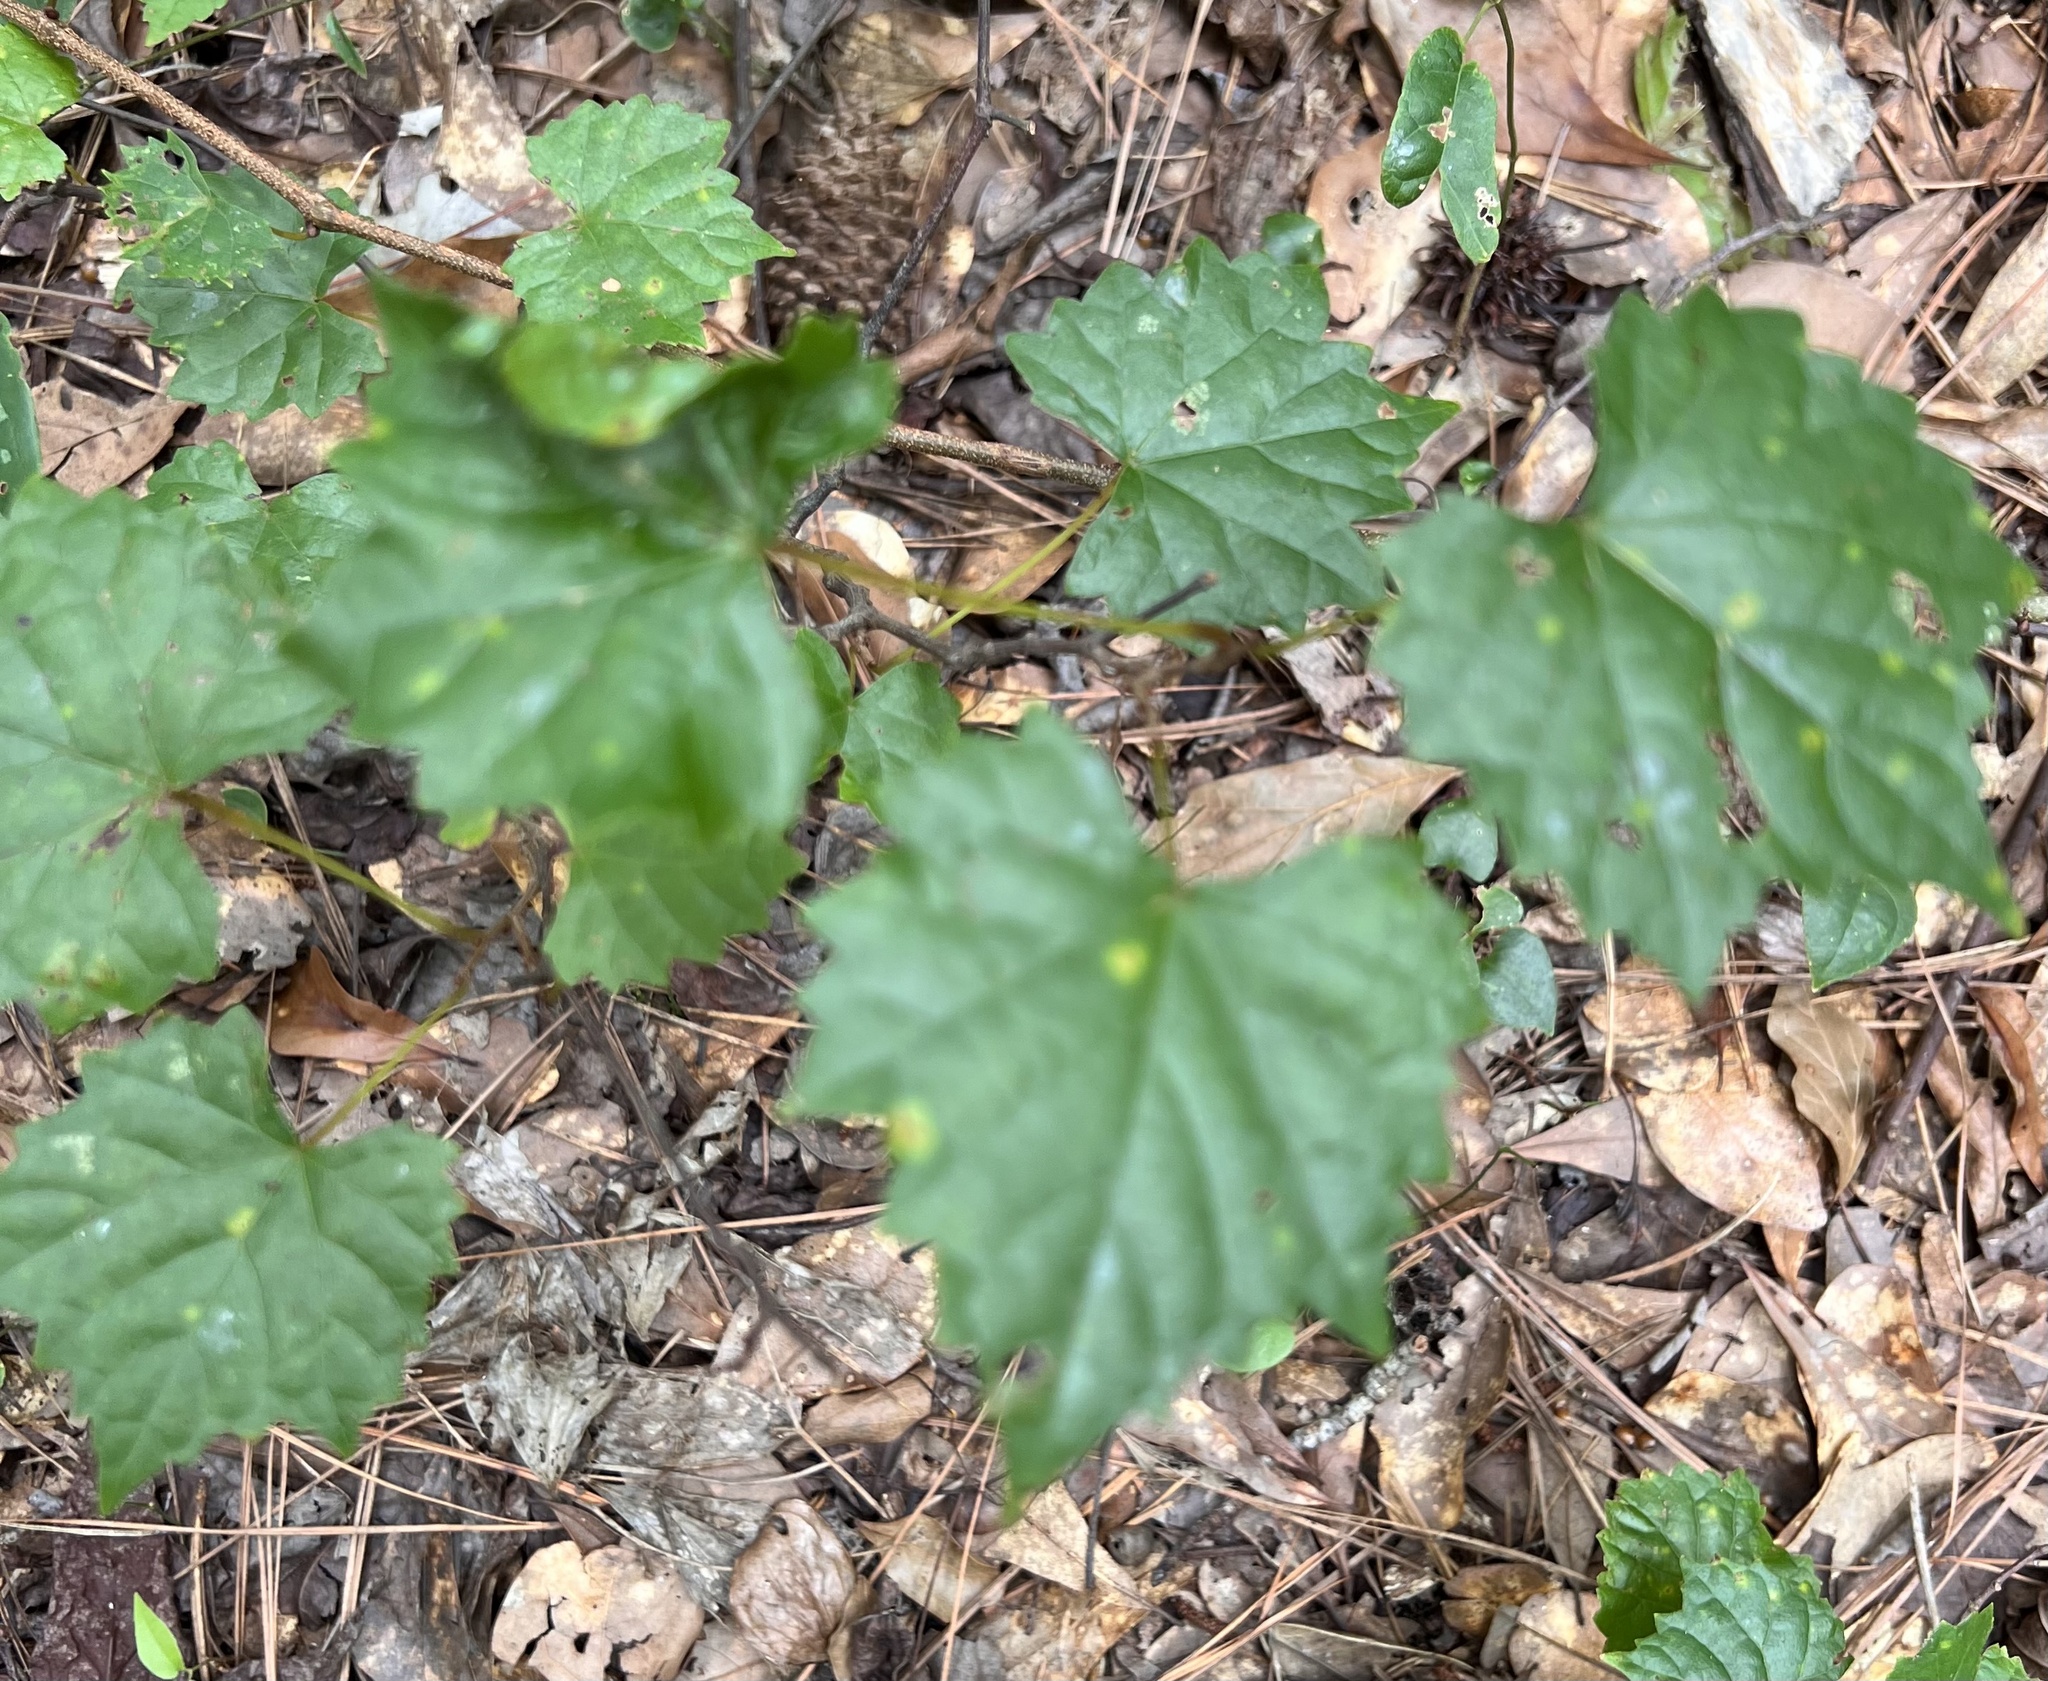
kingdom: Plantae
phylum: Tracheophyta
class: Magnoliopsida
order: Vitales
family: Vitaceae
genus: Vitis
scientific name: Vitis rotundifolia
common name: Muscadine grape
